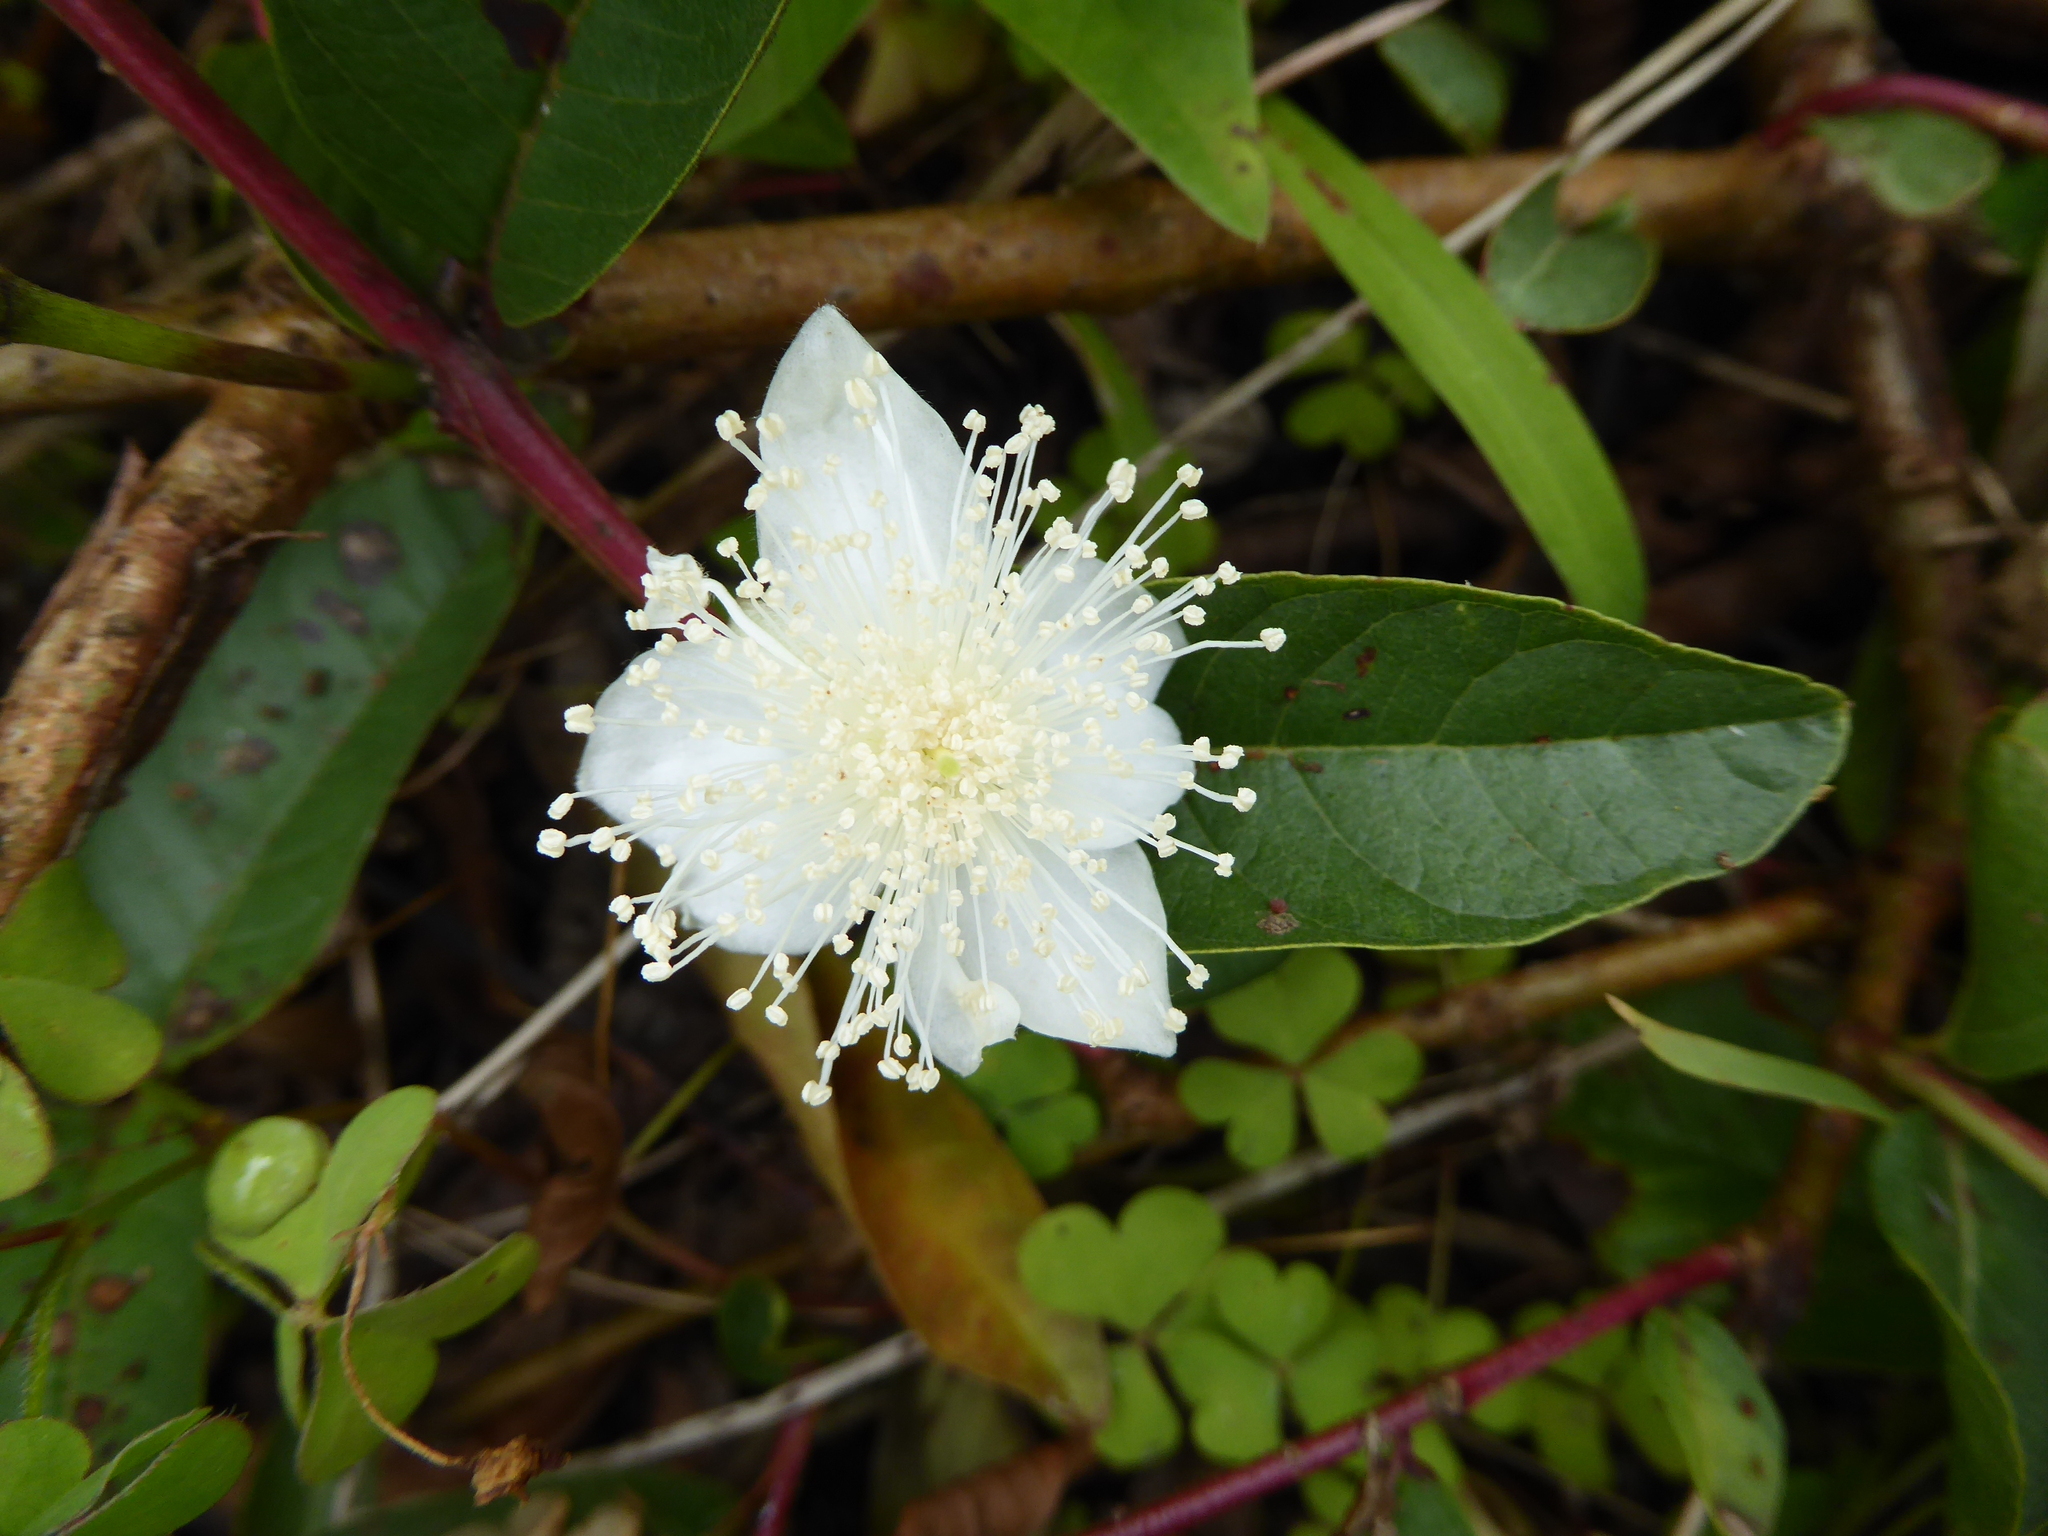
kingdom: Plantae
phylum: Tracheophyta
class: Magnoliopsida
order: Myrtales
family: Myrtaceae
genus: Psidium
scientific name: Psidium guajava
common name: Guava
